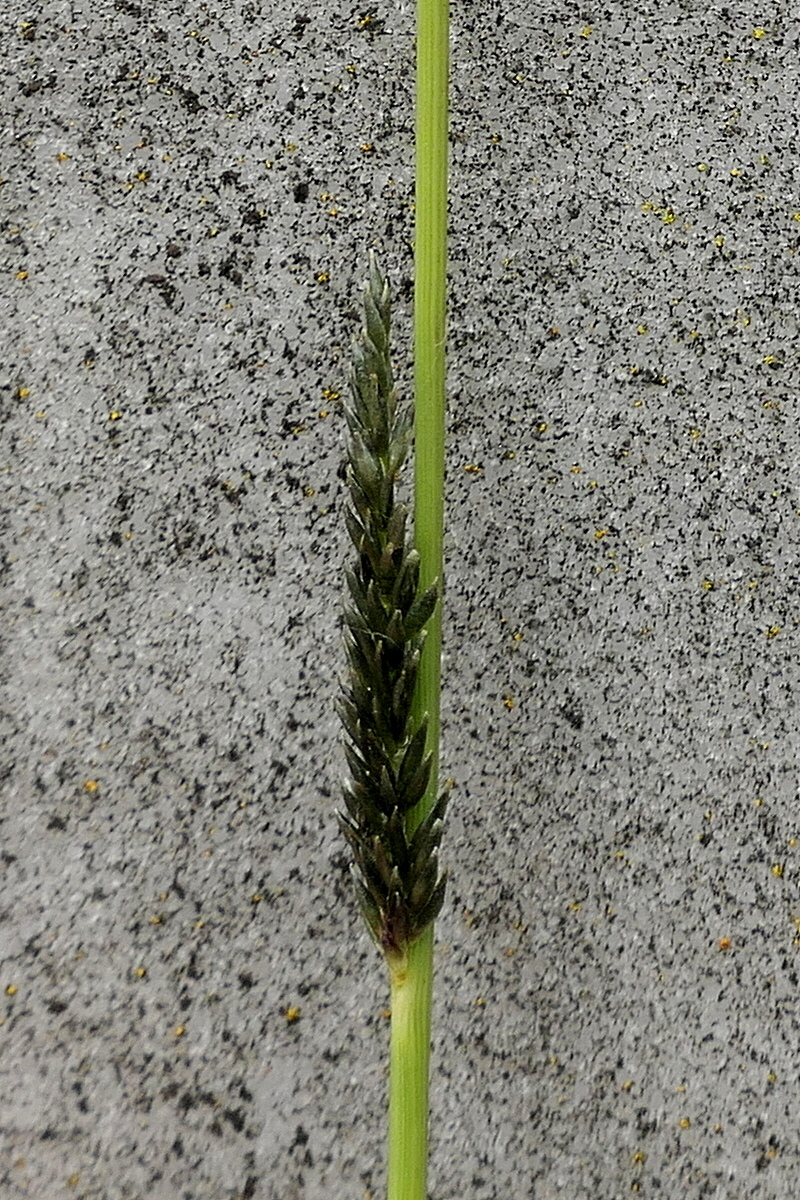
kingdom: Plantae
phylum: Tracheophyta
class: Liliopsida
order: Poales
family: Poaceae
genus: Sporobolus
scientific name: Sporobolus creber
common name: Slender dropseed
